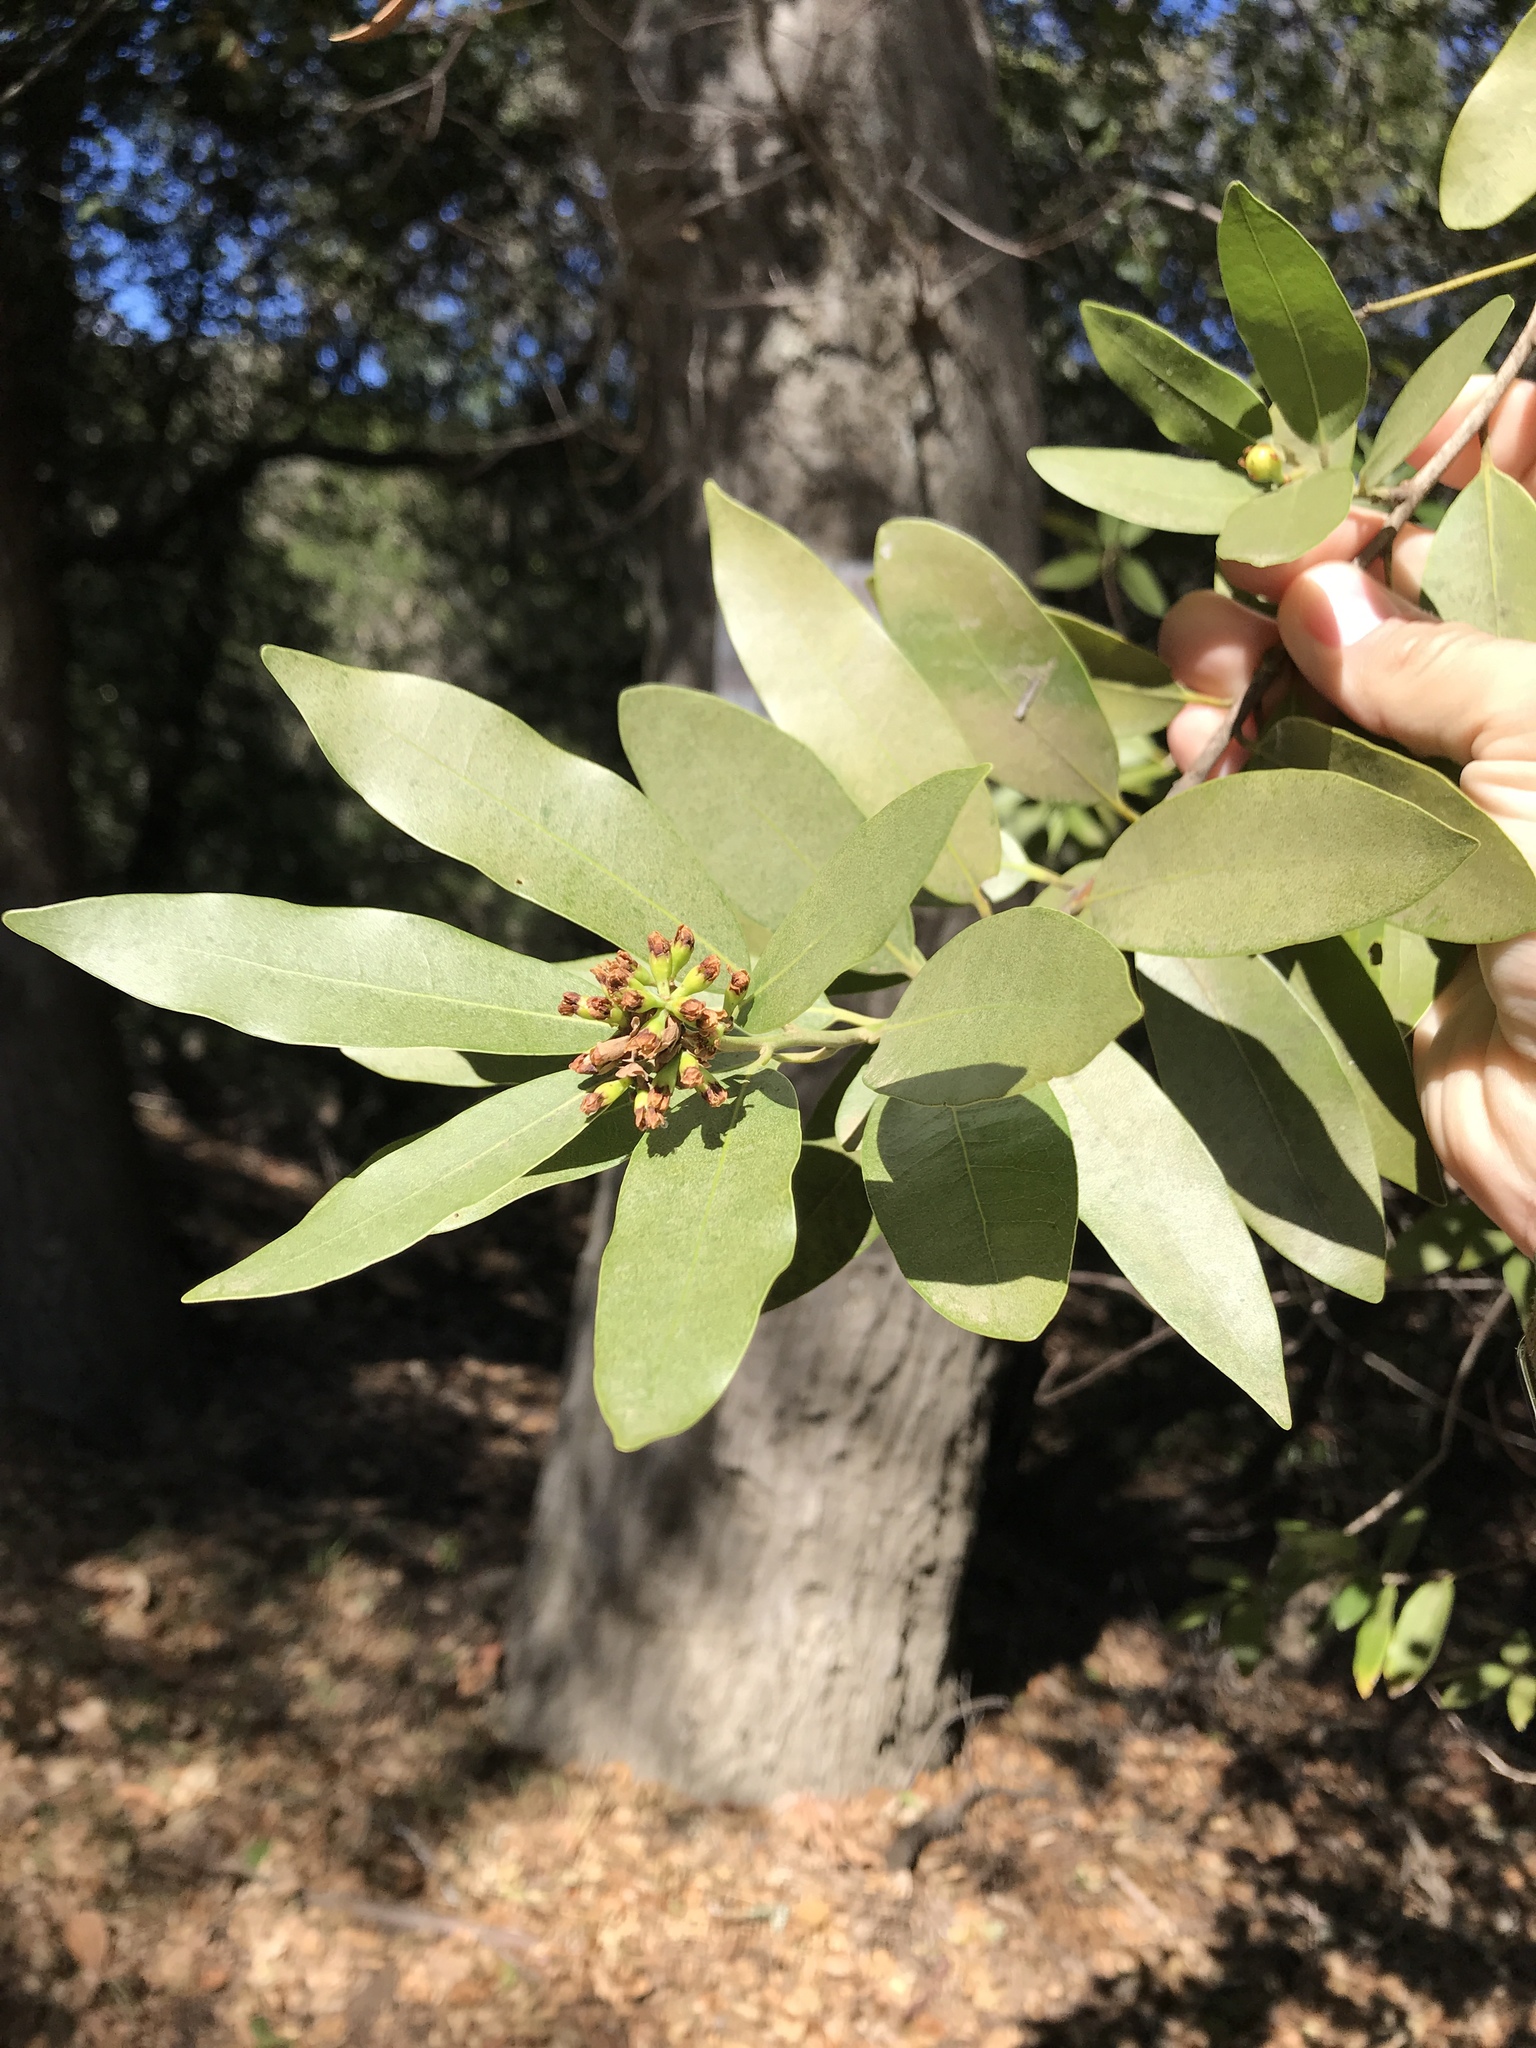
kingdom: Plantae
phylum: Tracheophyta
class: Magnoliopsida
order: Laurales
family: Lauraceae
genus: Umbellularia
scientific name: Umbellularia californica
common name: California bay
